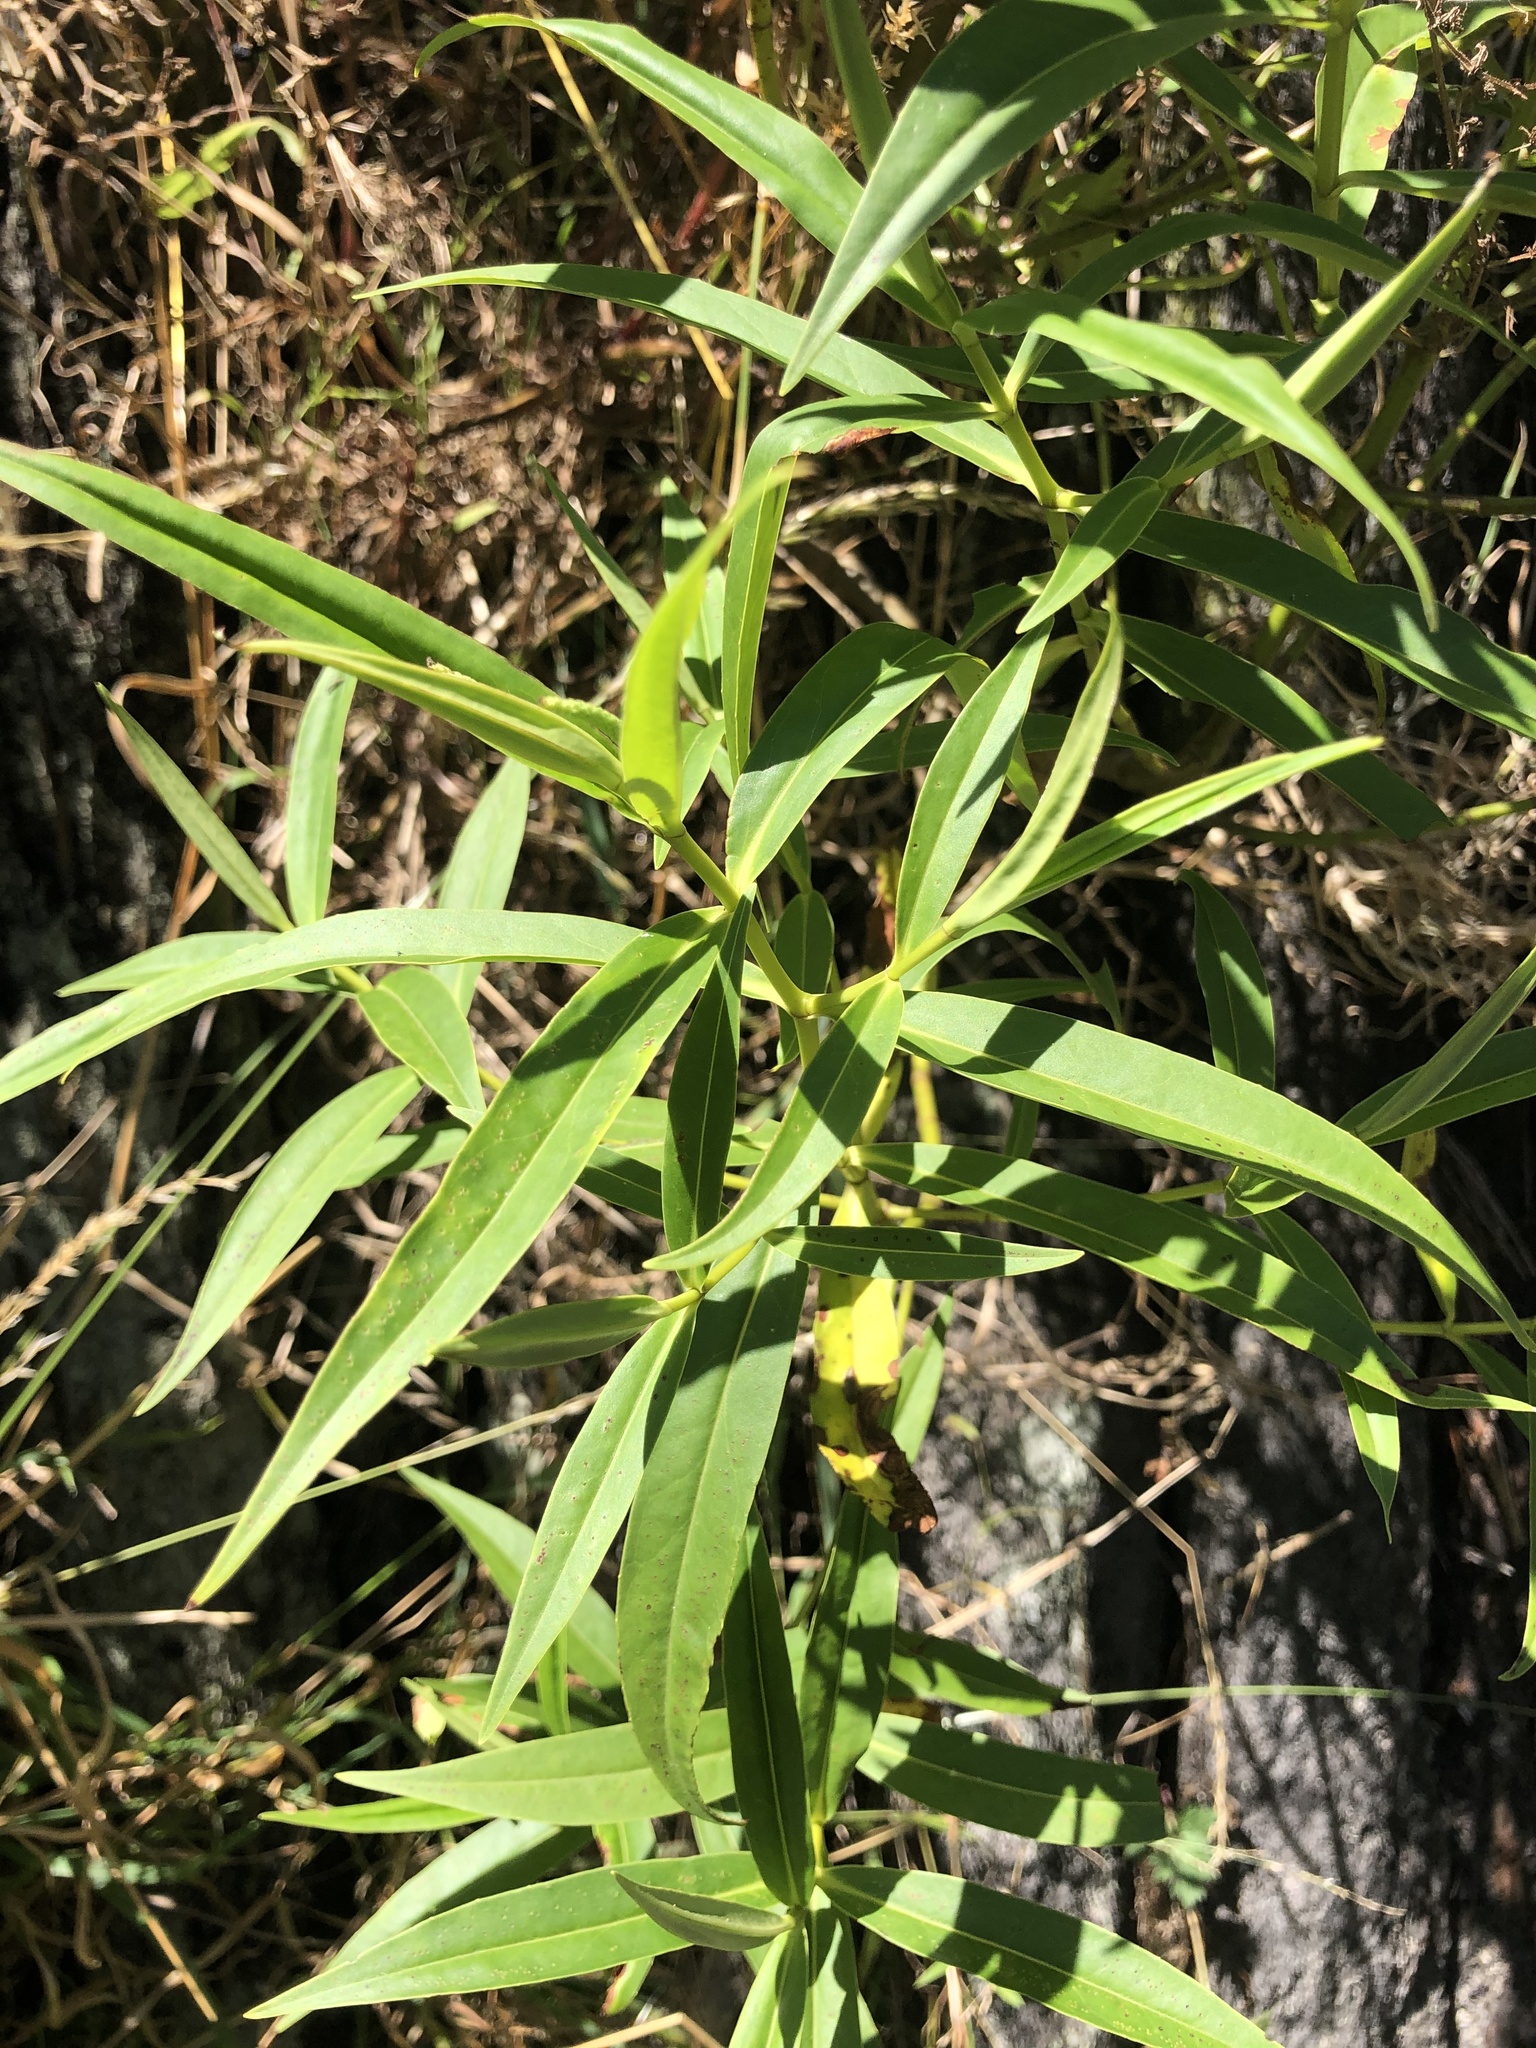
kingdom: Plantae
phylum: Tracheophyta
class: Magnoliopsida
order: Lamiales
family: Plantaginaceae
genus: Veronica
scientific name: Veronica stricta
